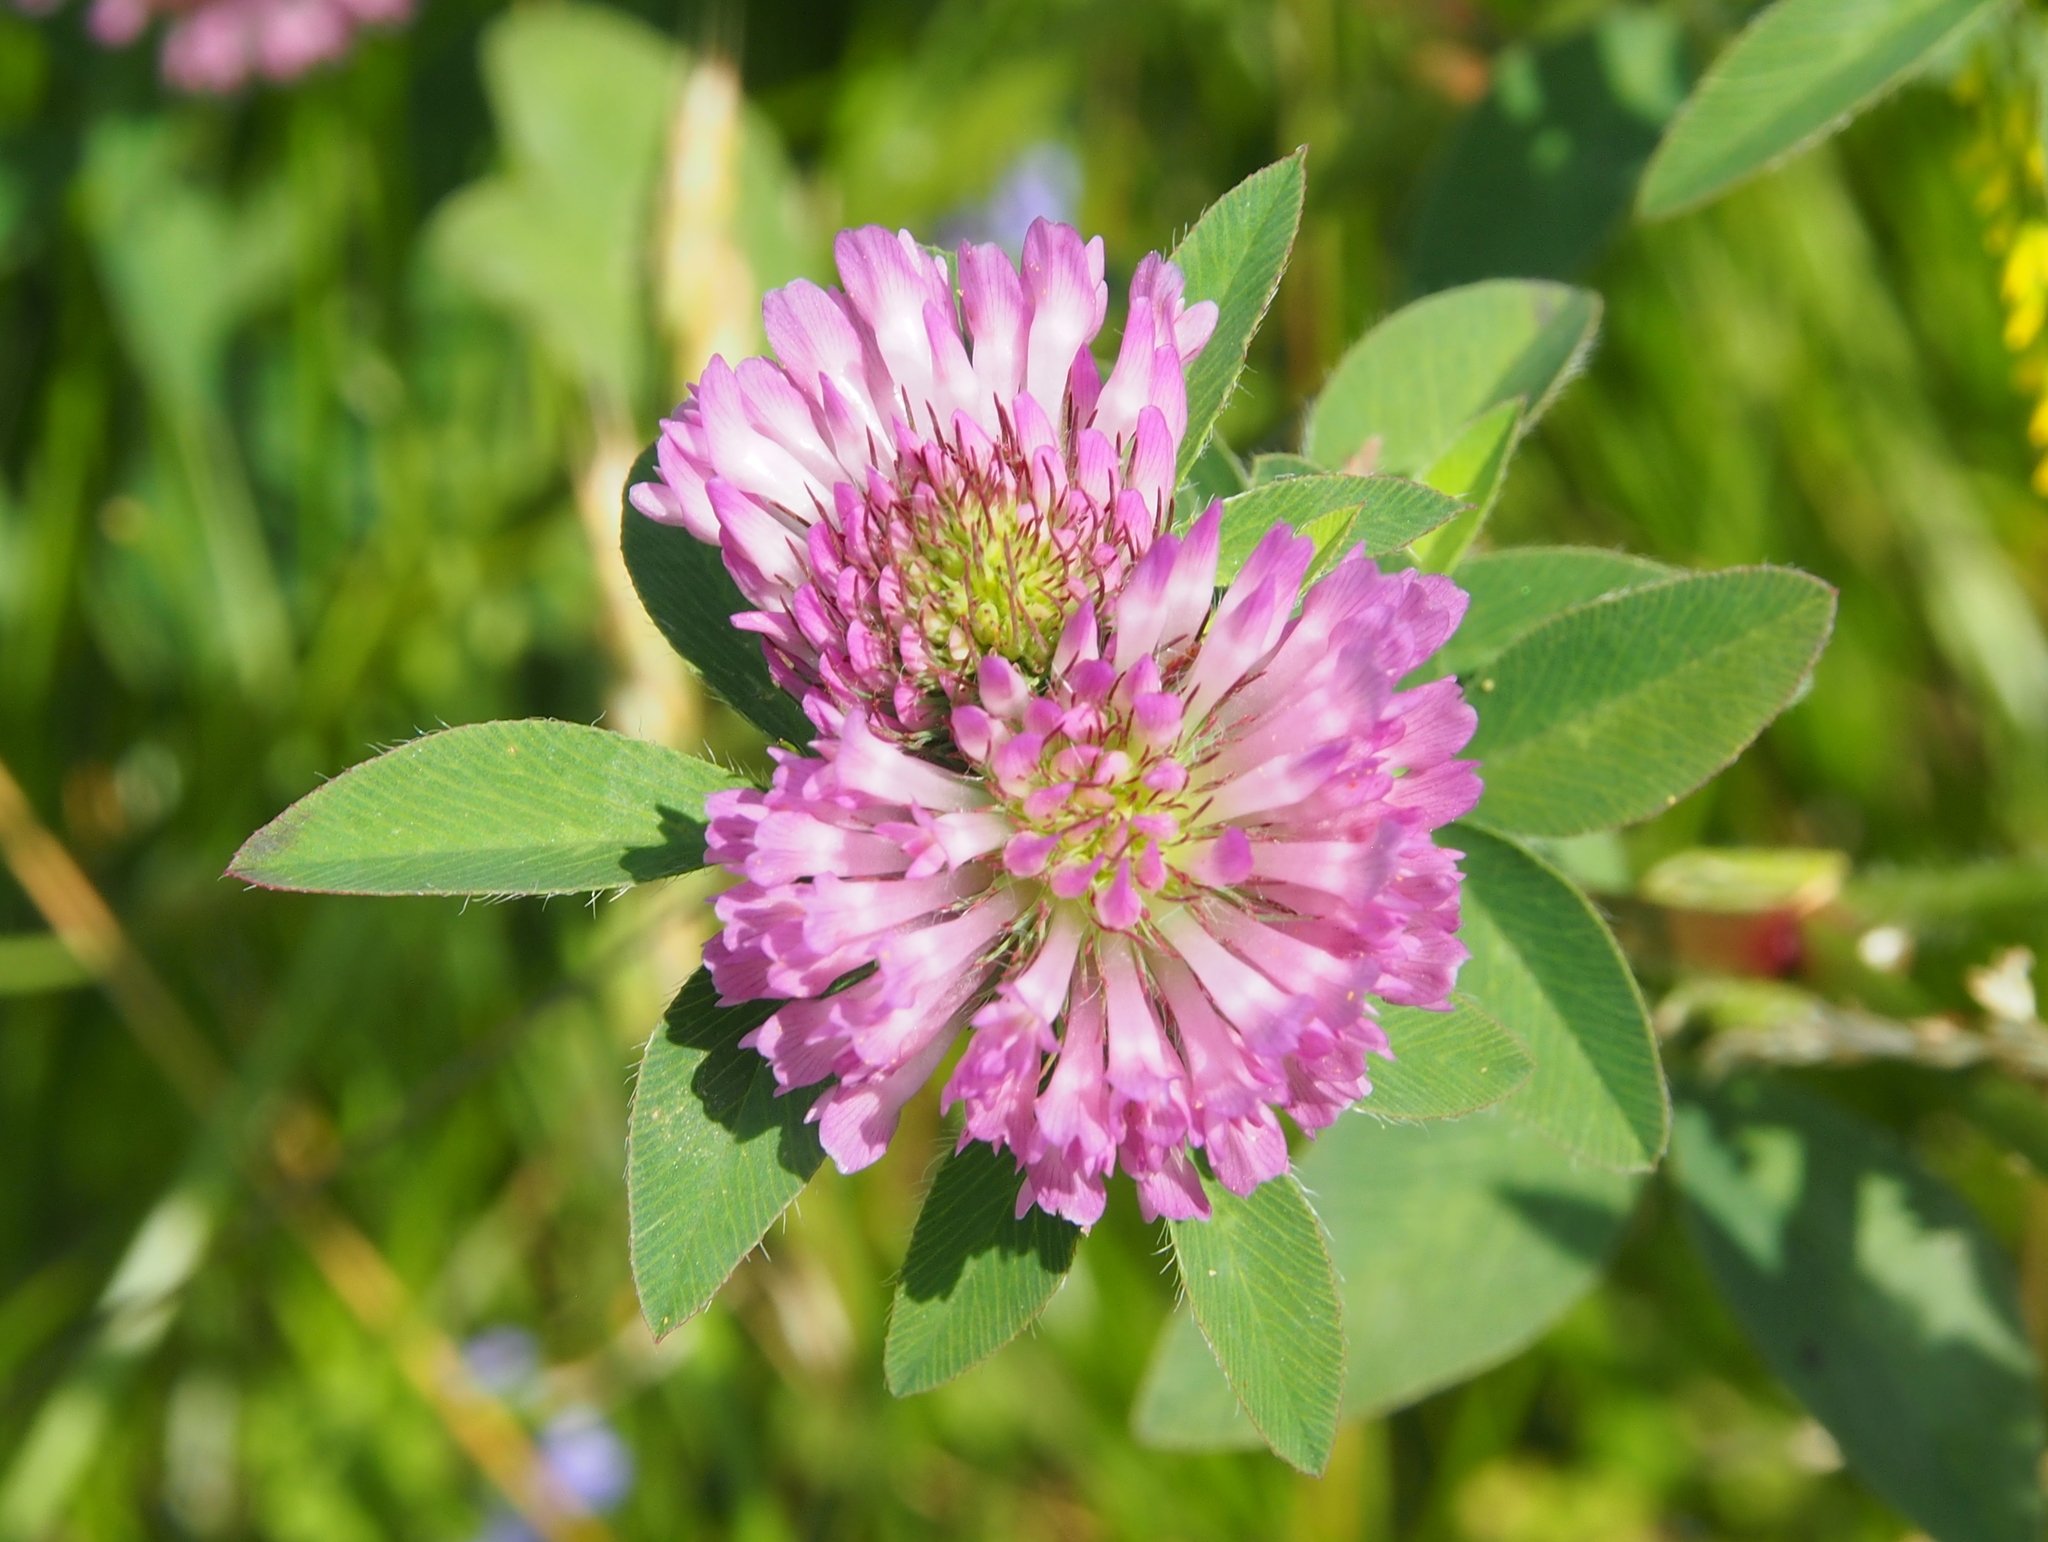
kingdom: Plantae
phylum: Tracheophyta
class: Magnoliopsida
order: Fabales
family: Fabaceae
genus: Trifolium
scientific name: Trifolium pratense
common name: Red clover
